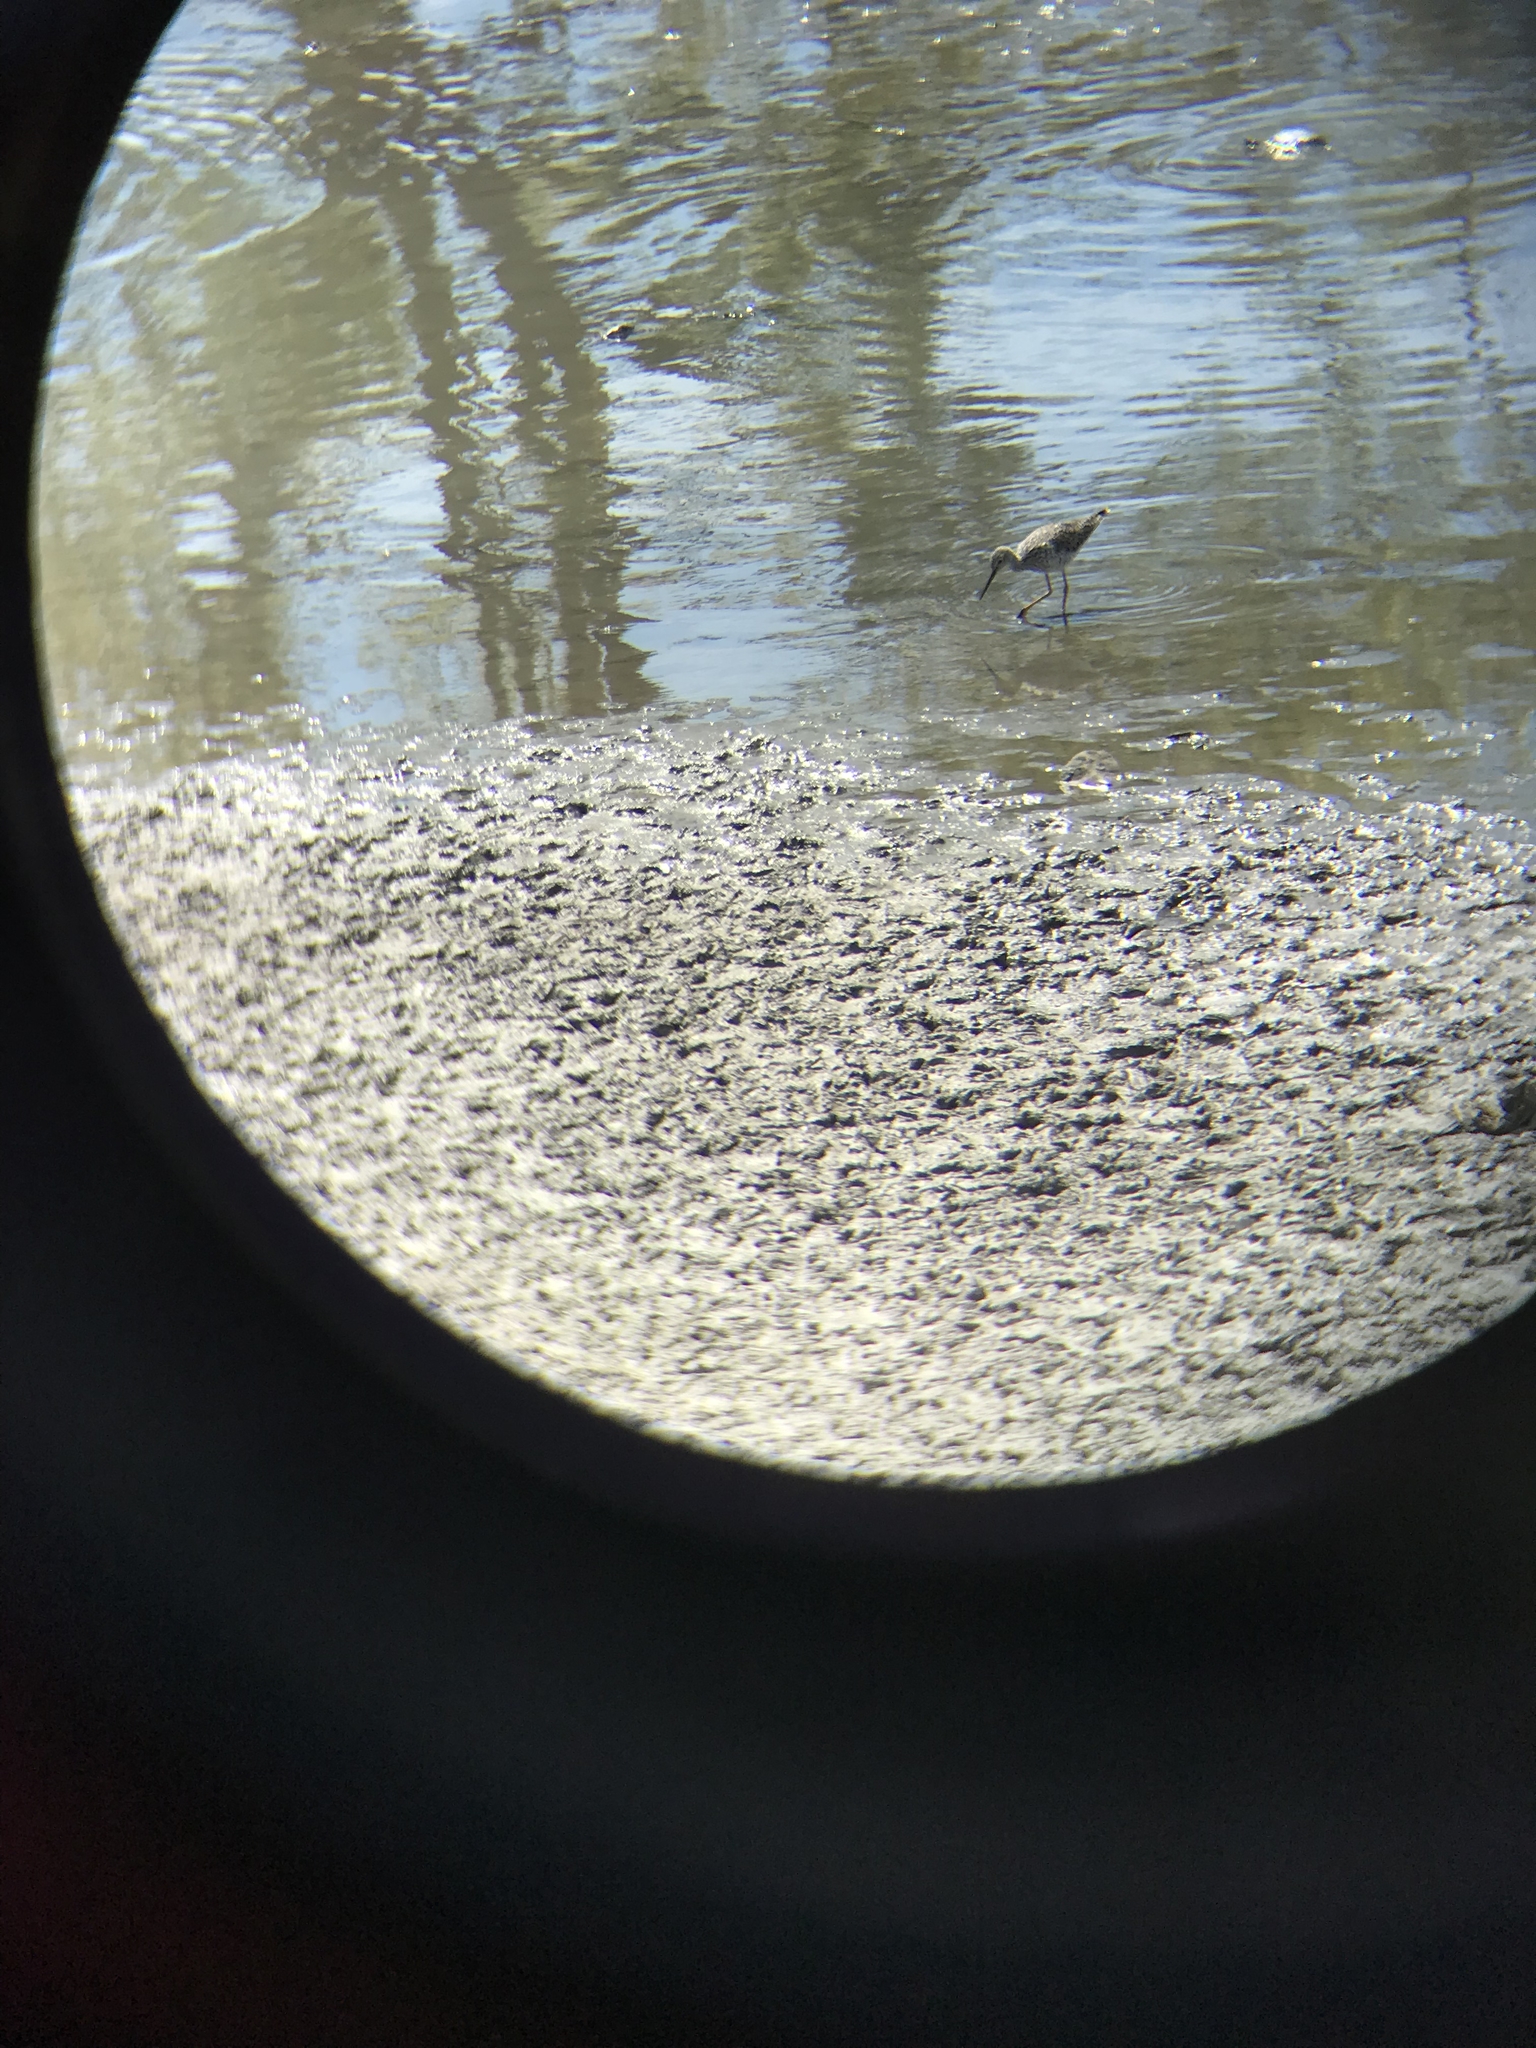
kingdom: Animalia
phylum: Chordata
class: Aves
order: Charadriiformes
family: Scolopacidae
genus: Tringa
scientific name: Tringa melanoleuca
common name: Greater yellowlegs
